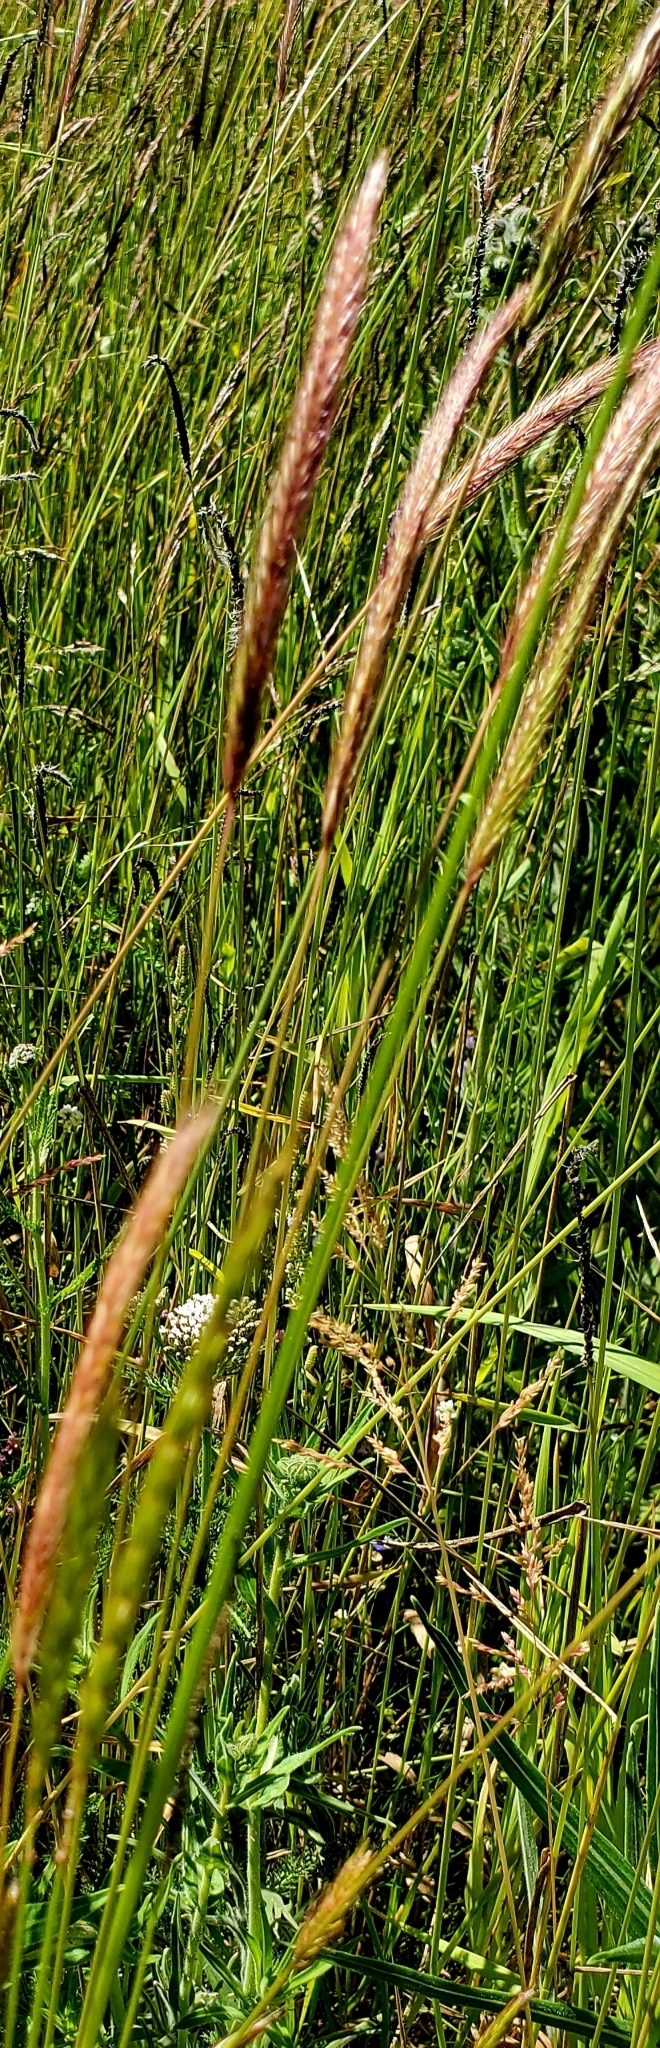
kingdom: Plantae
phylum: Tracheophyta
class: Liliopsida
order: Poales
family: Poaceae
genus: Hordeum
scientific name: Hordeum brachyantherum
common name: Meadow barley
